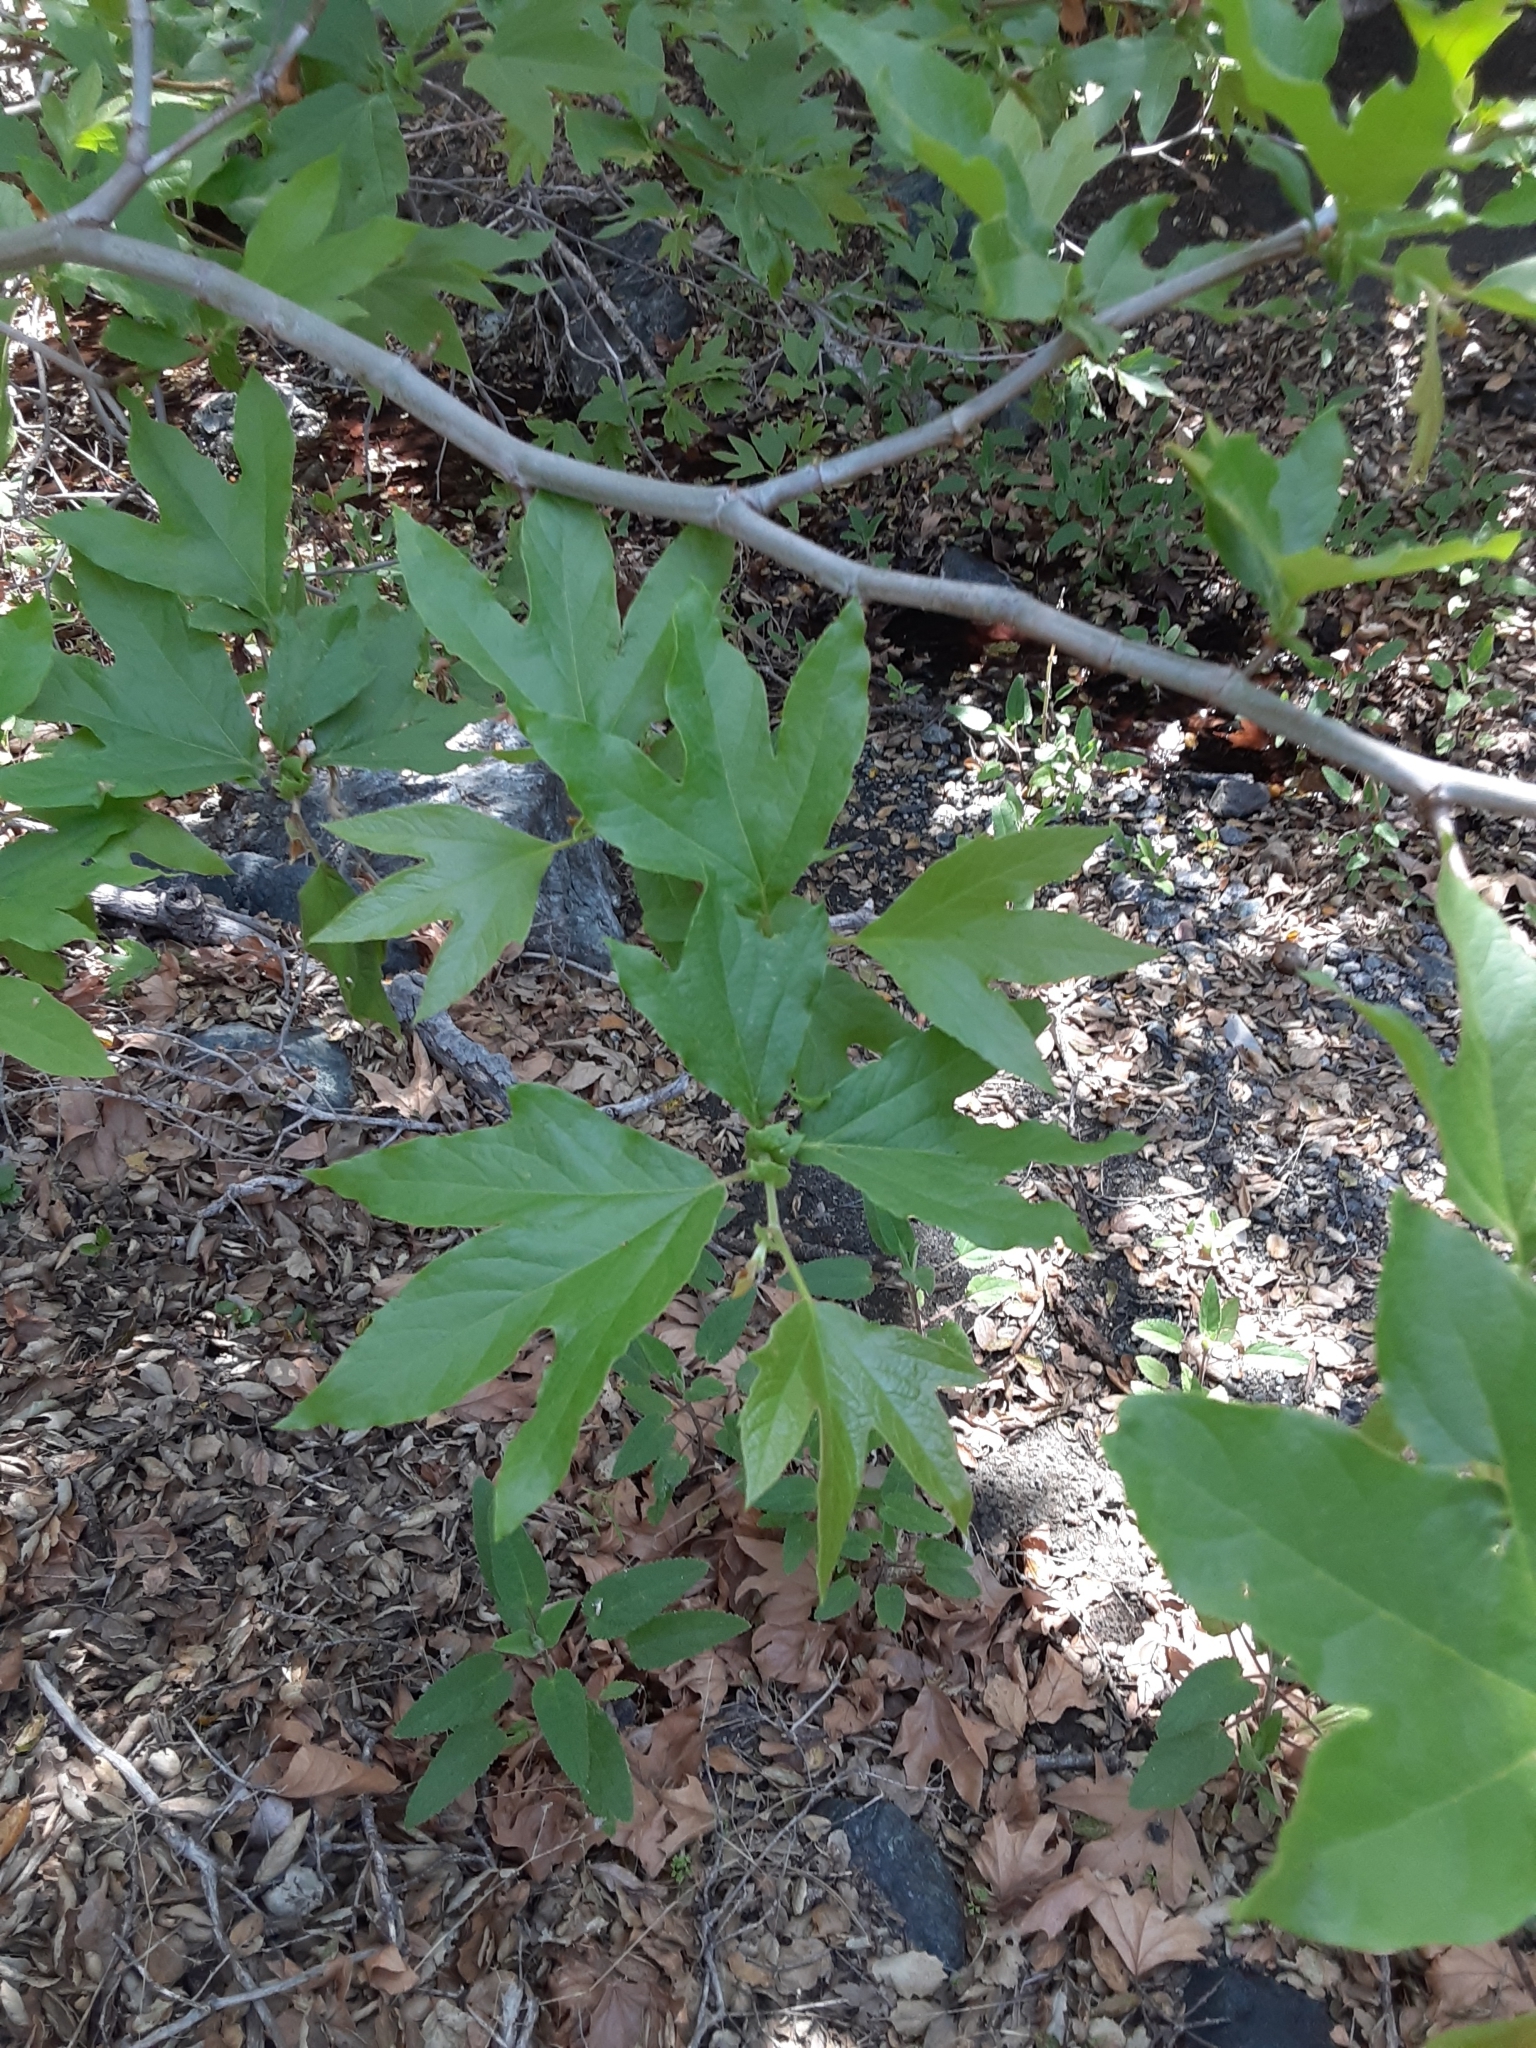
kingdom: Plantae
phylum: Tracheophyta
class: Magnoliopsida
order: Proteales
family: Platanaceae
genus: Platanus
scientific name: Platanus racemosa
